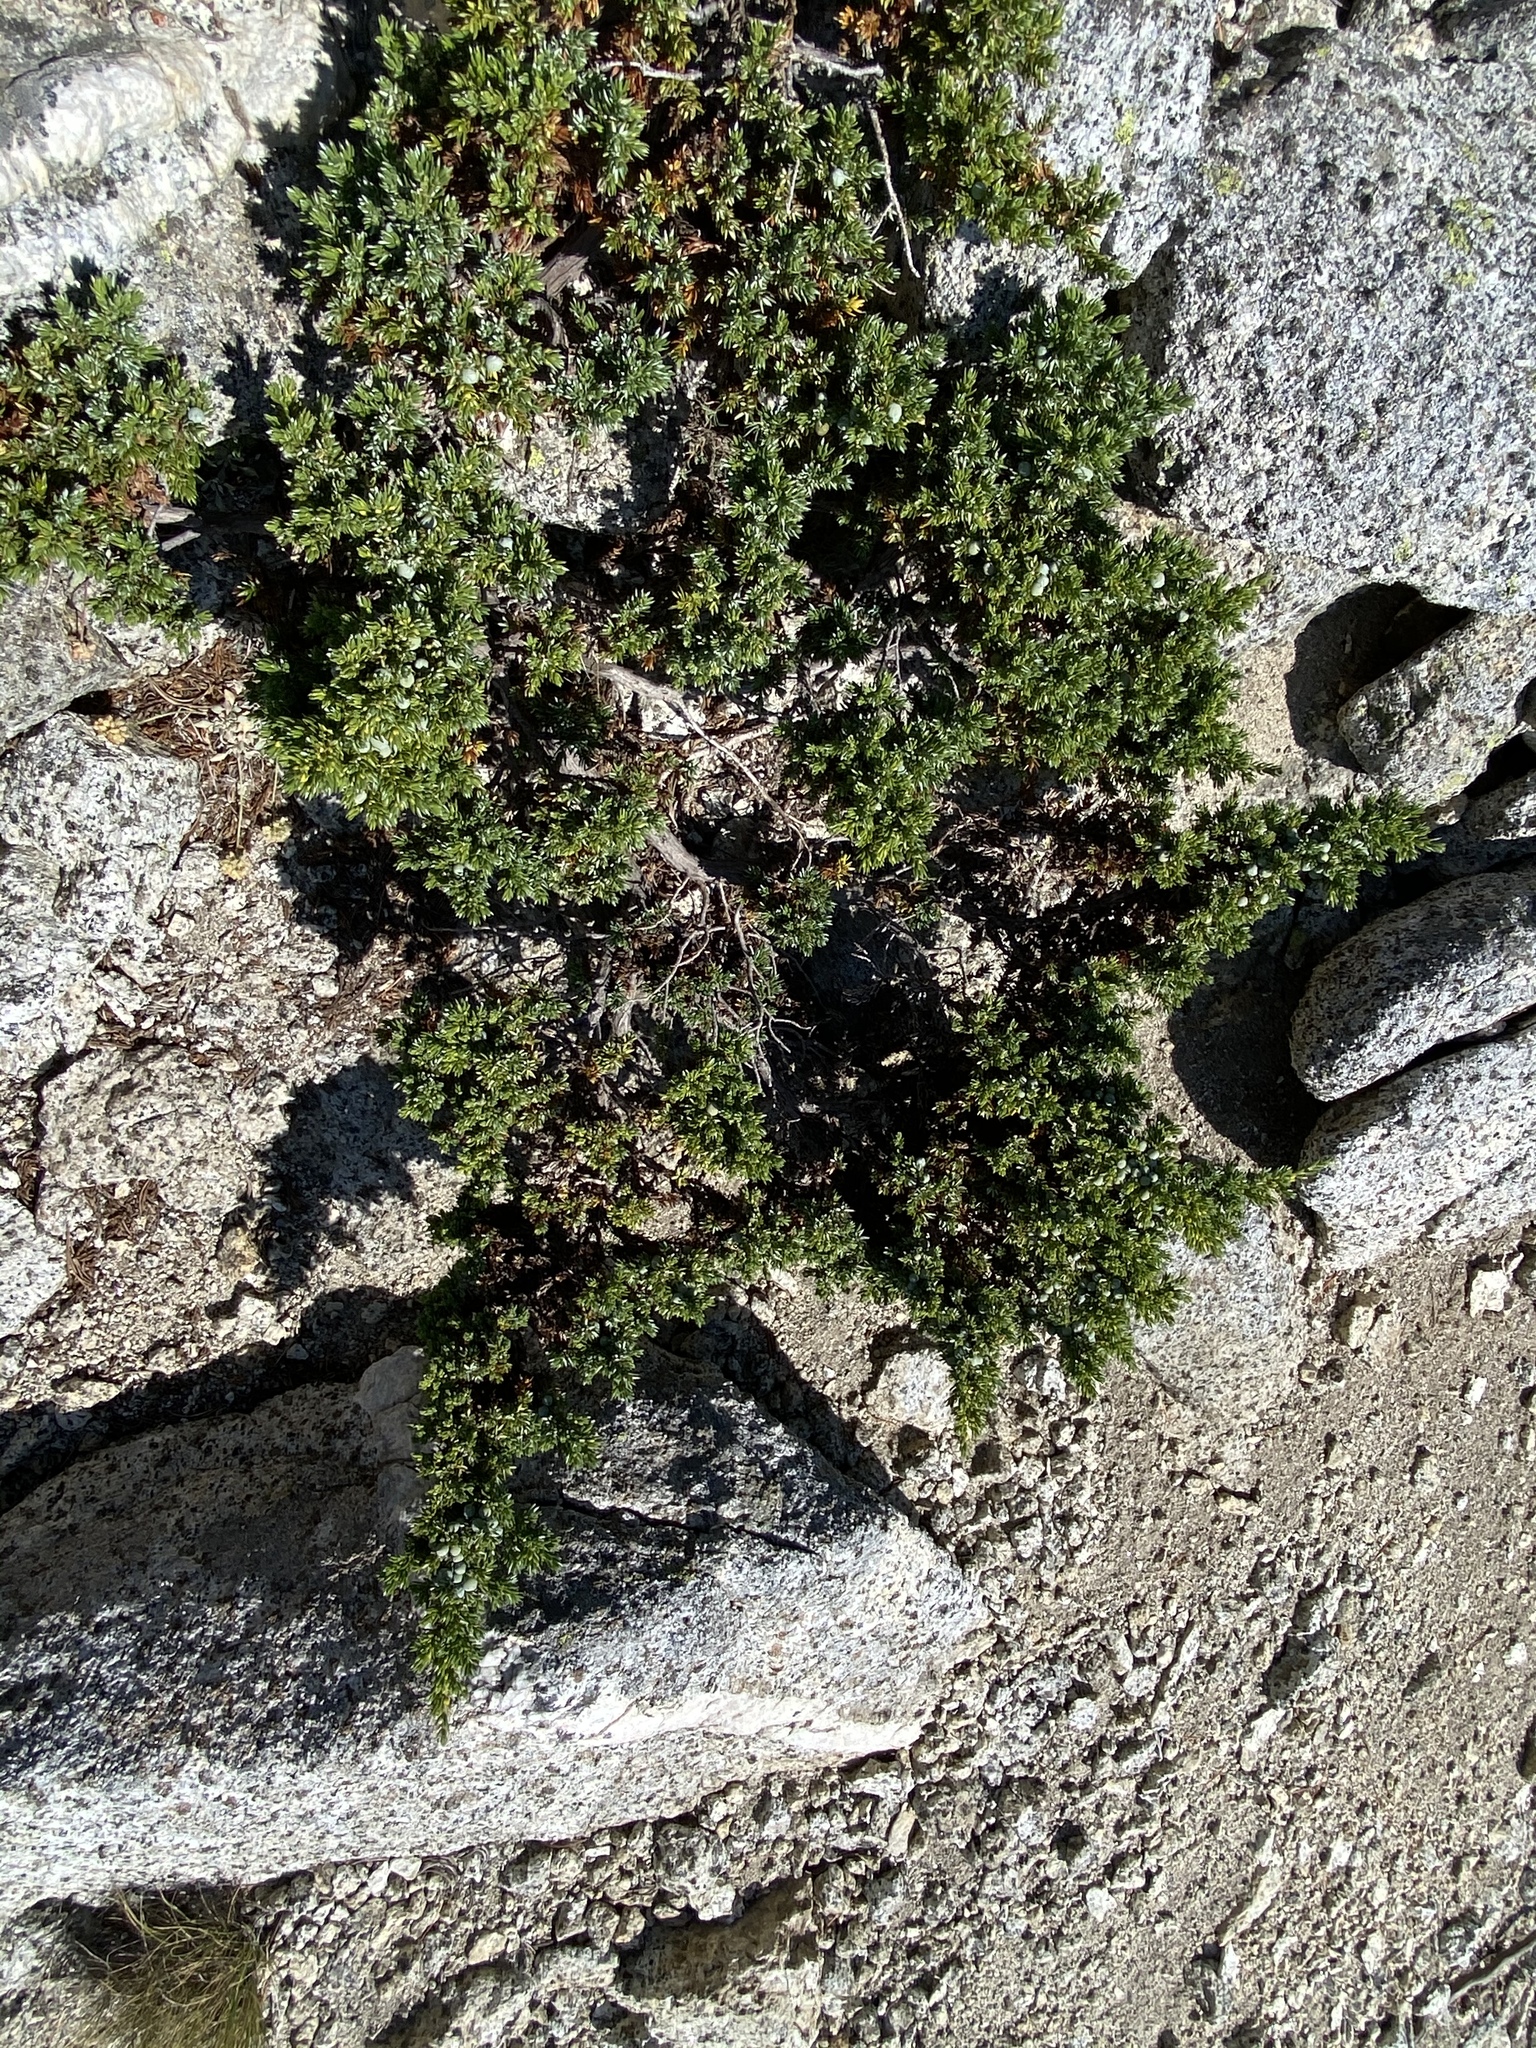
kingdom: Plantae
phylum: Tracheophyta
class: Pinopsida
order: Pinales
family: Cupressaceae
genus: Juniperus
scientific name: Juniperus communis
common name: Common juniper
